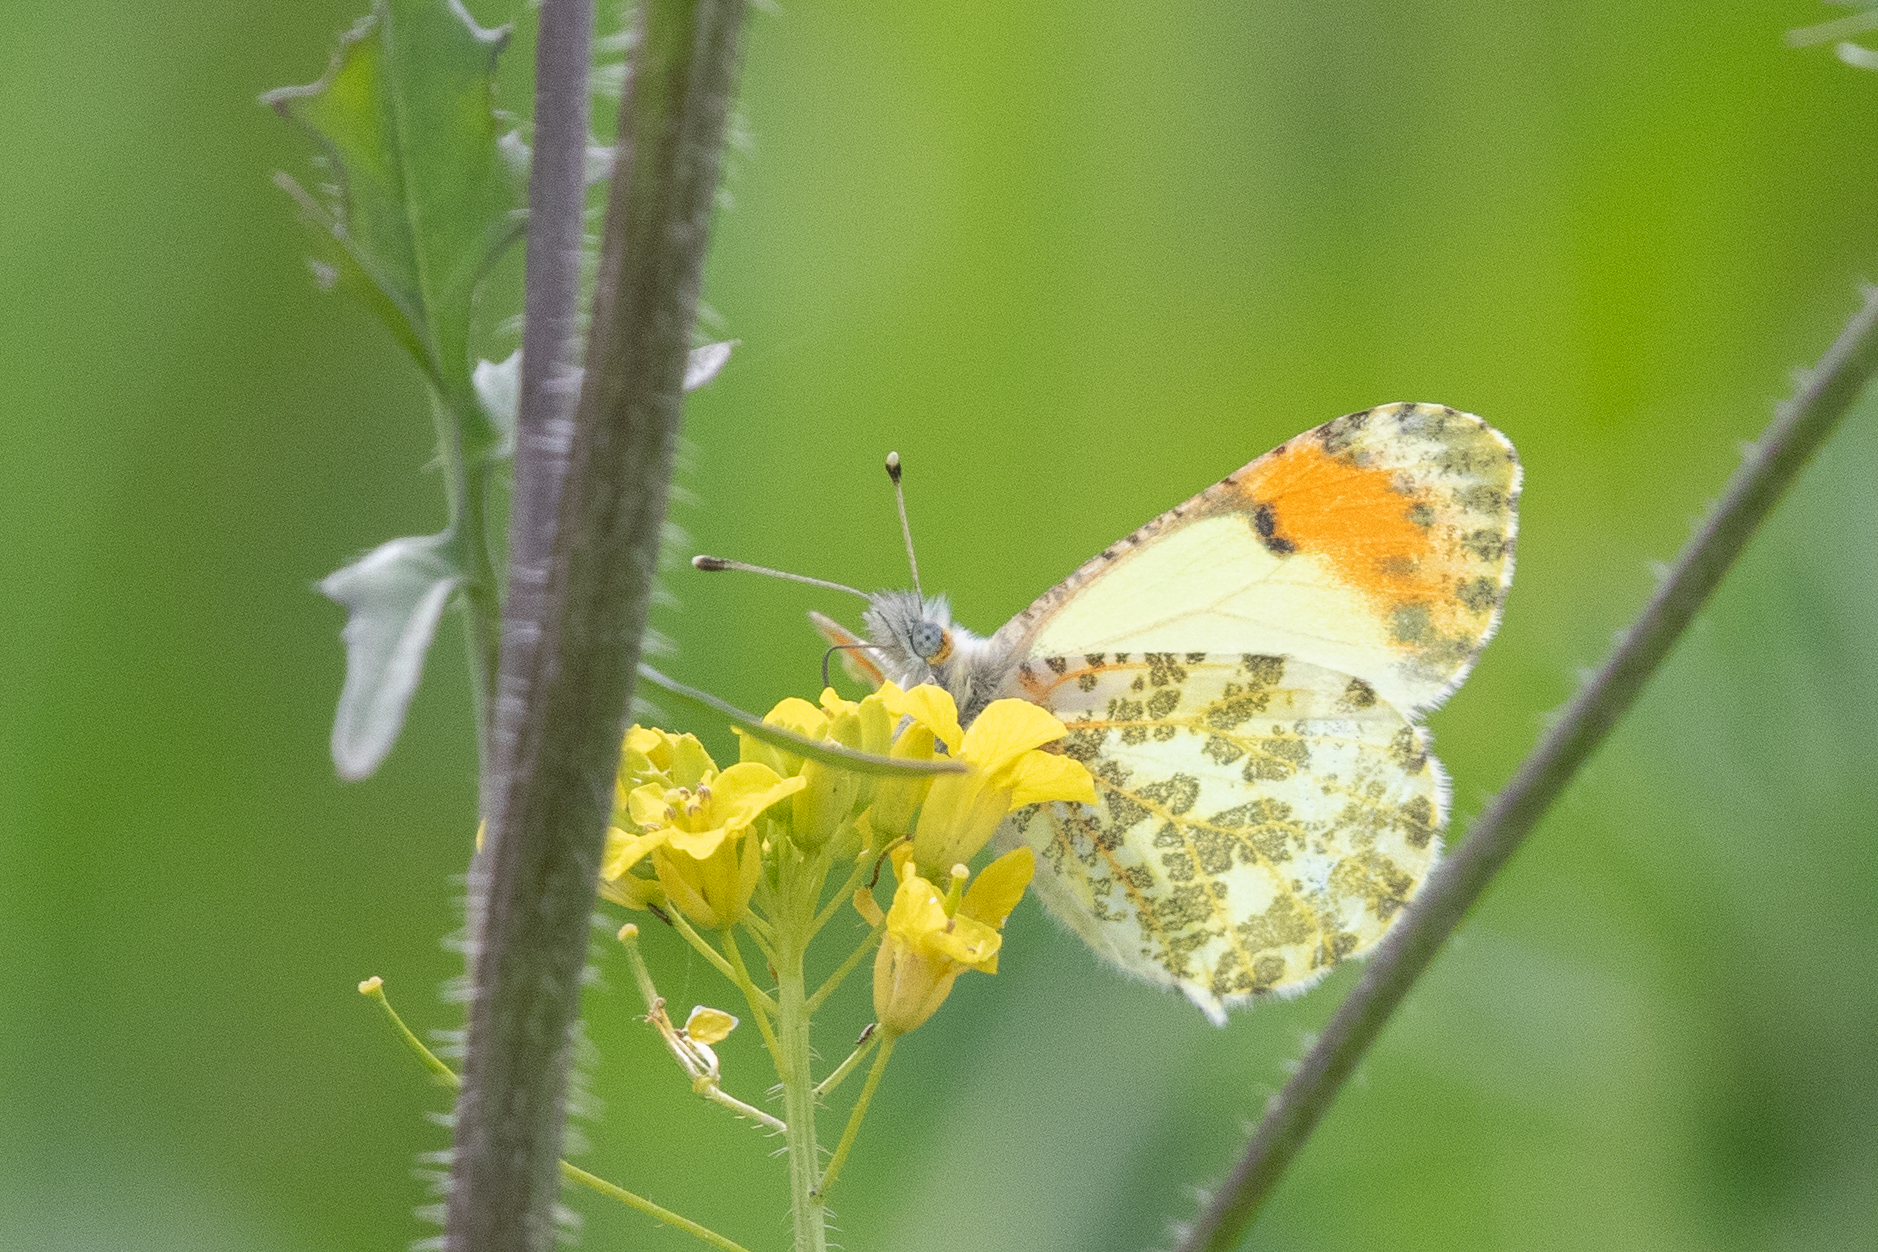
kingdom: Animalia
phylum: Arthropoda
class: Insecta
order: Lepidoptera
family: Pieridae
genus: Anthocharis
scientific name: Anthocharis julia
